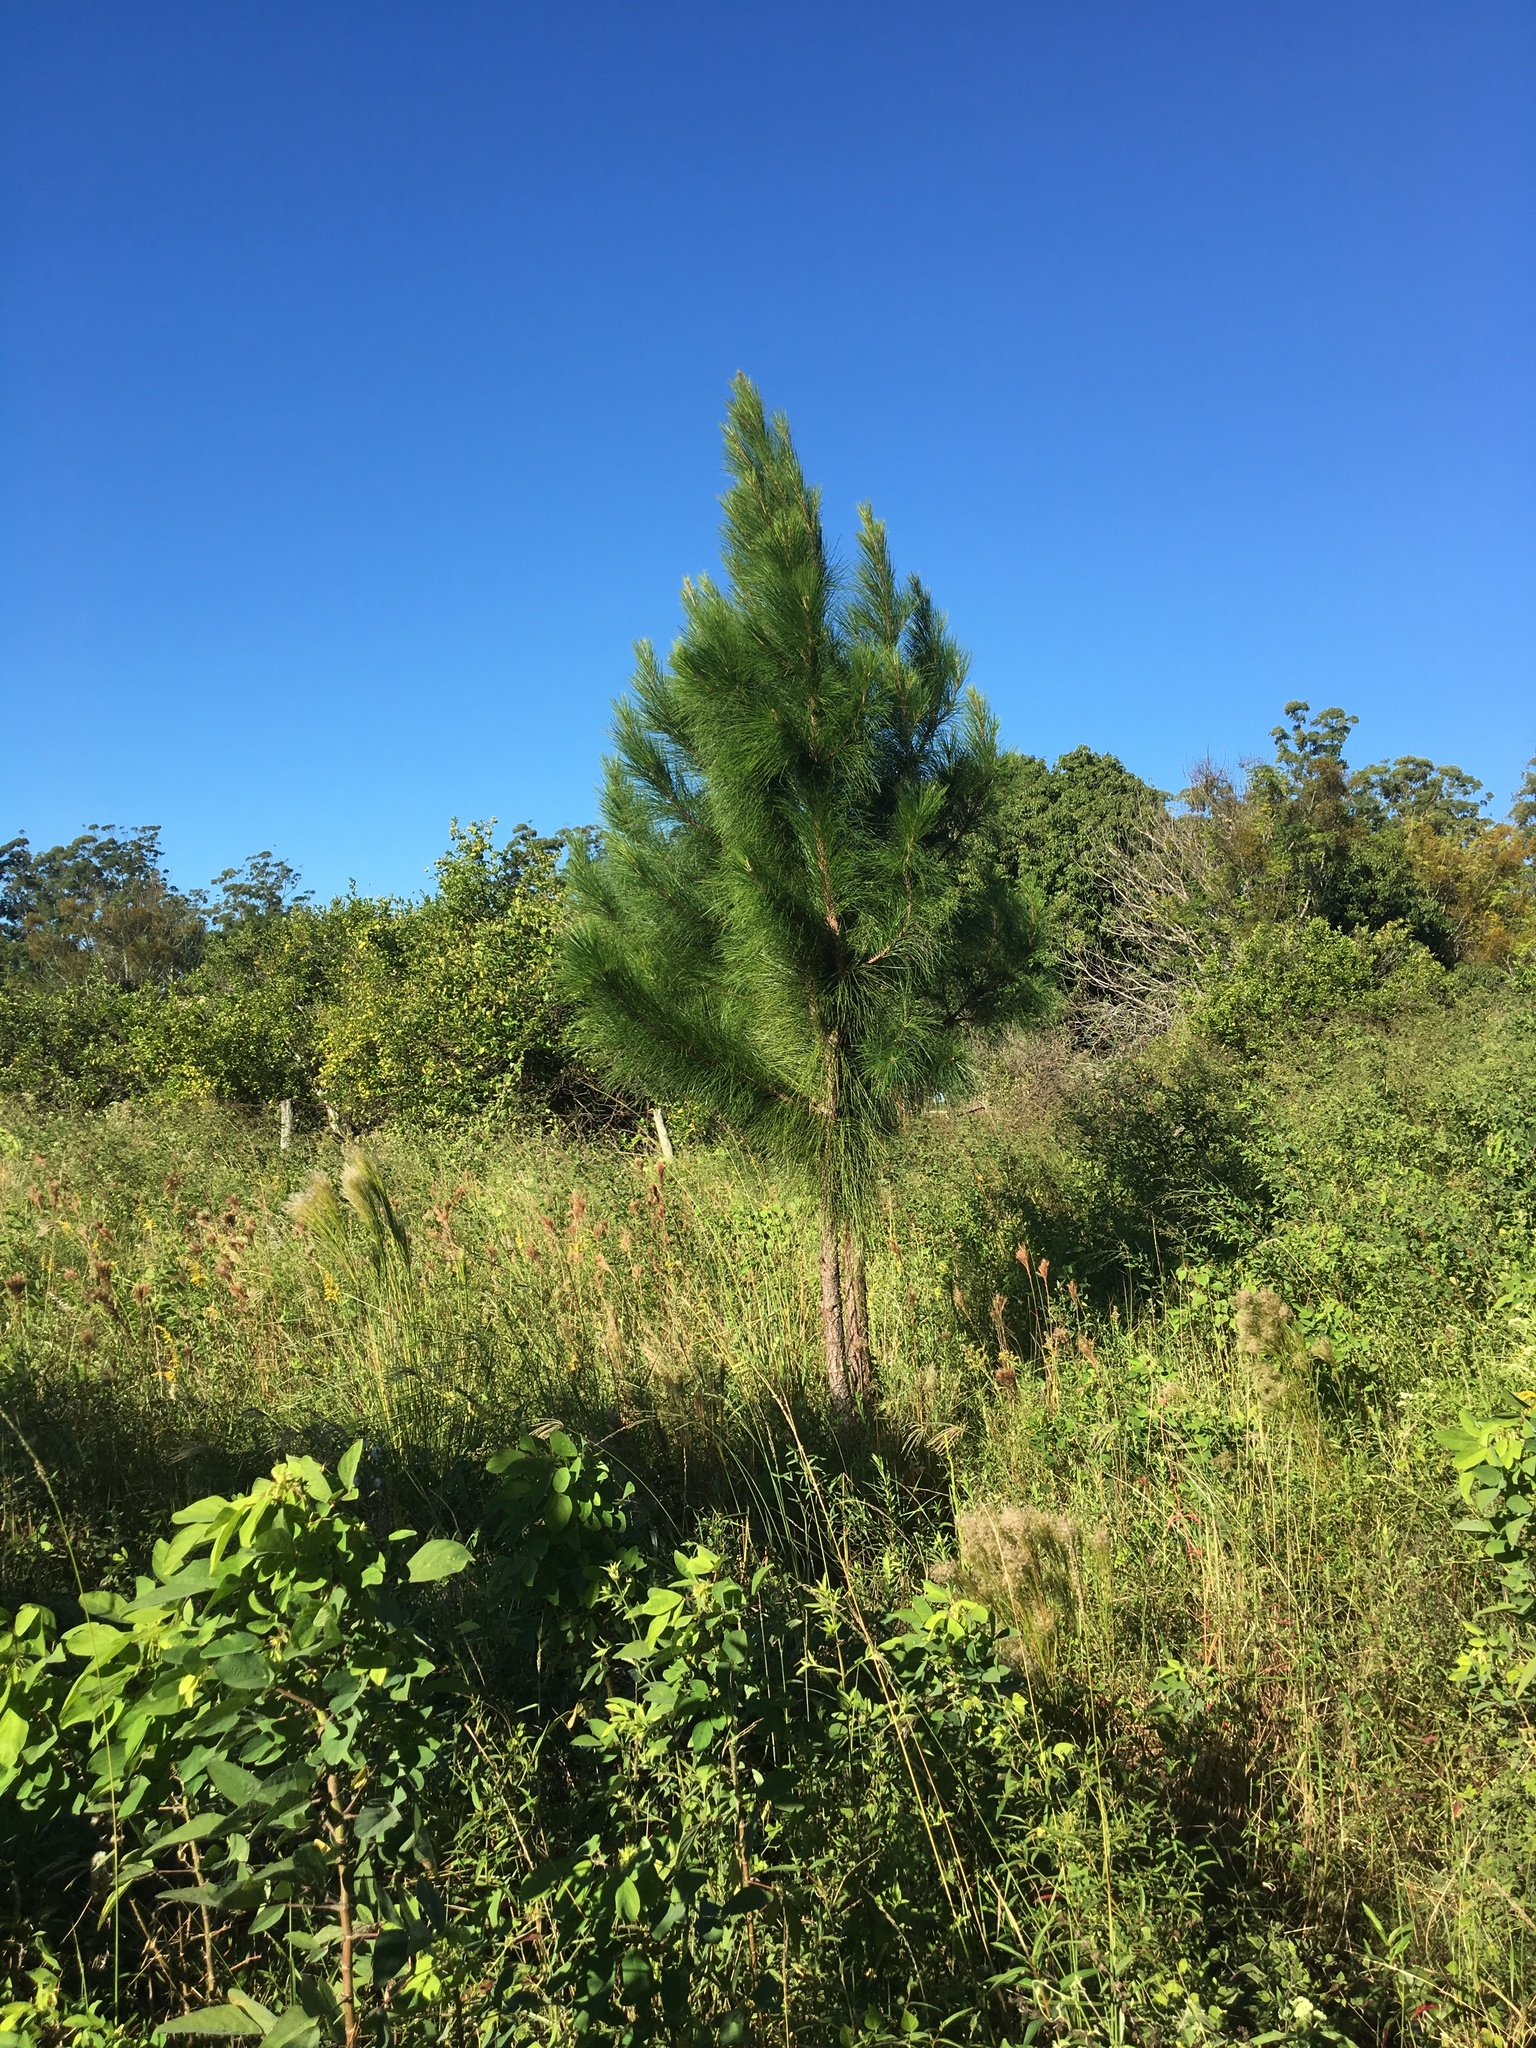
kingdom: Plantae
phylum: Tracheophyta
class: Pinopsida
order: Pinales
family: Pinaceae
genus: Pinus
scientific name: Pinus elliottii
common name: Slash pine
